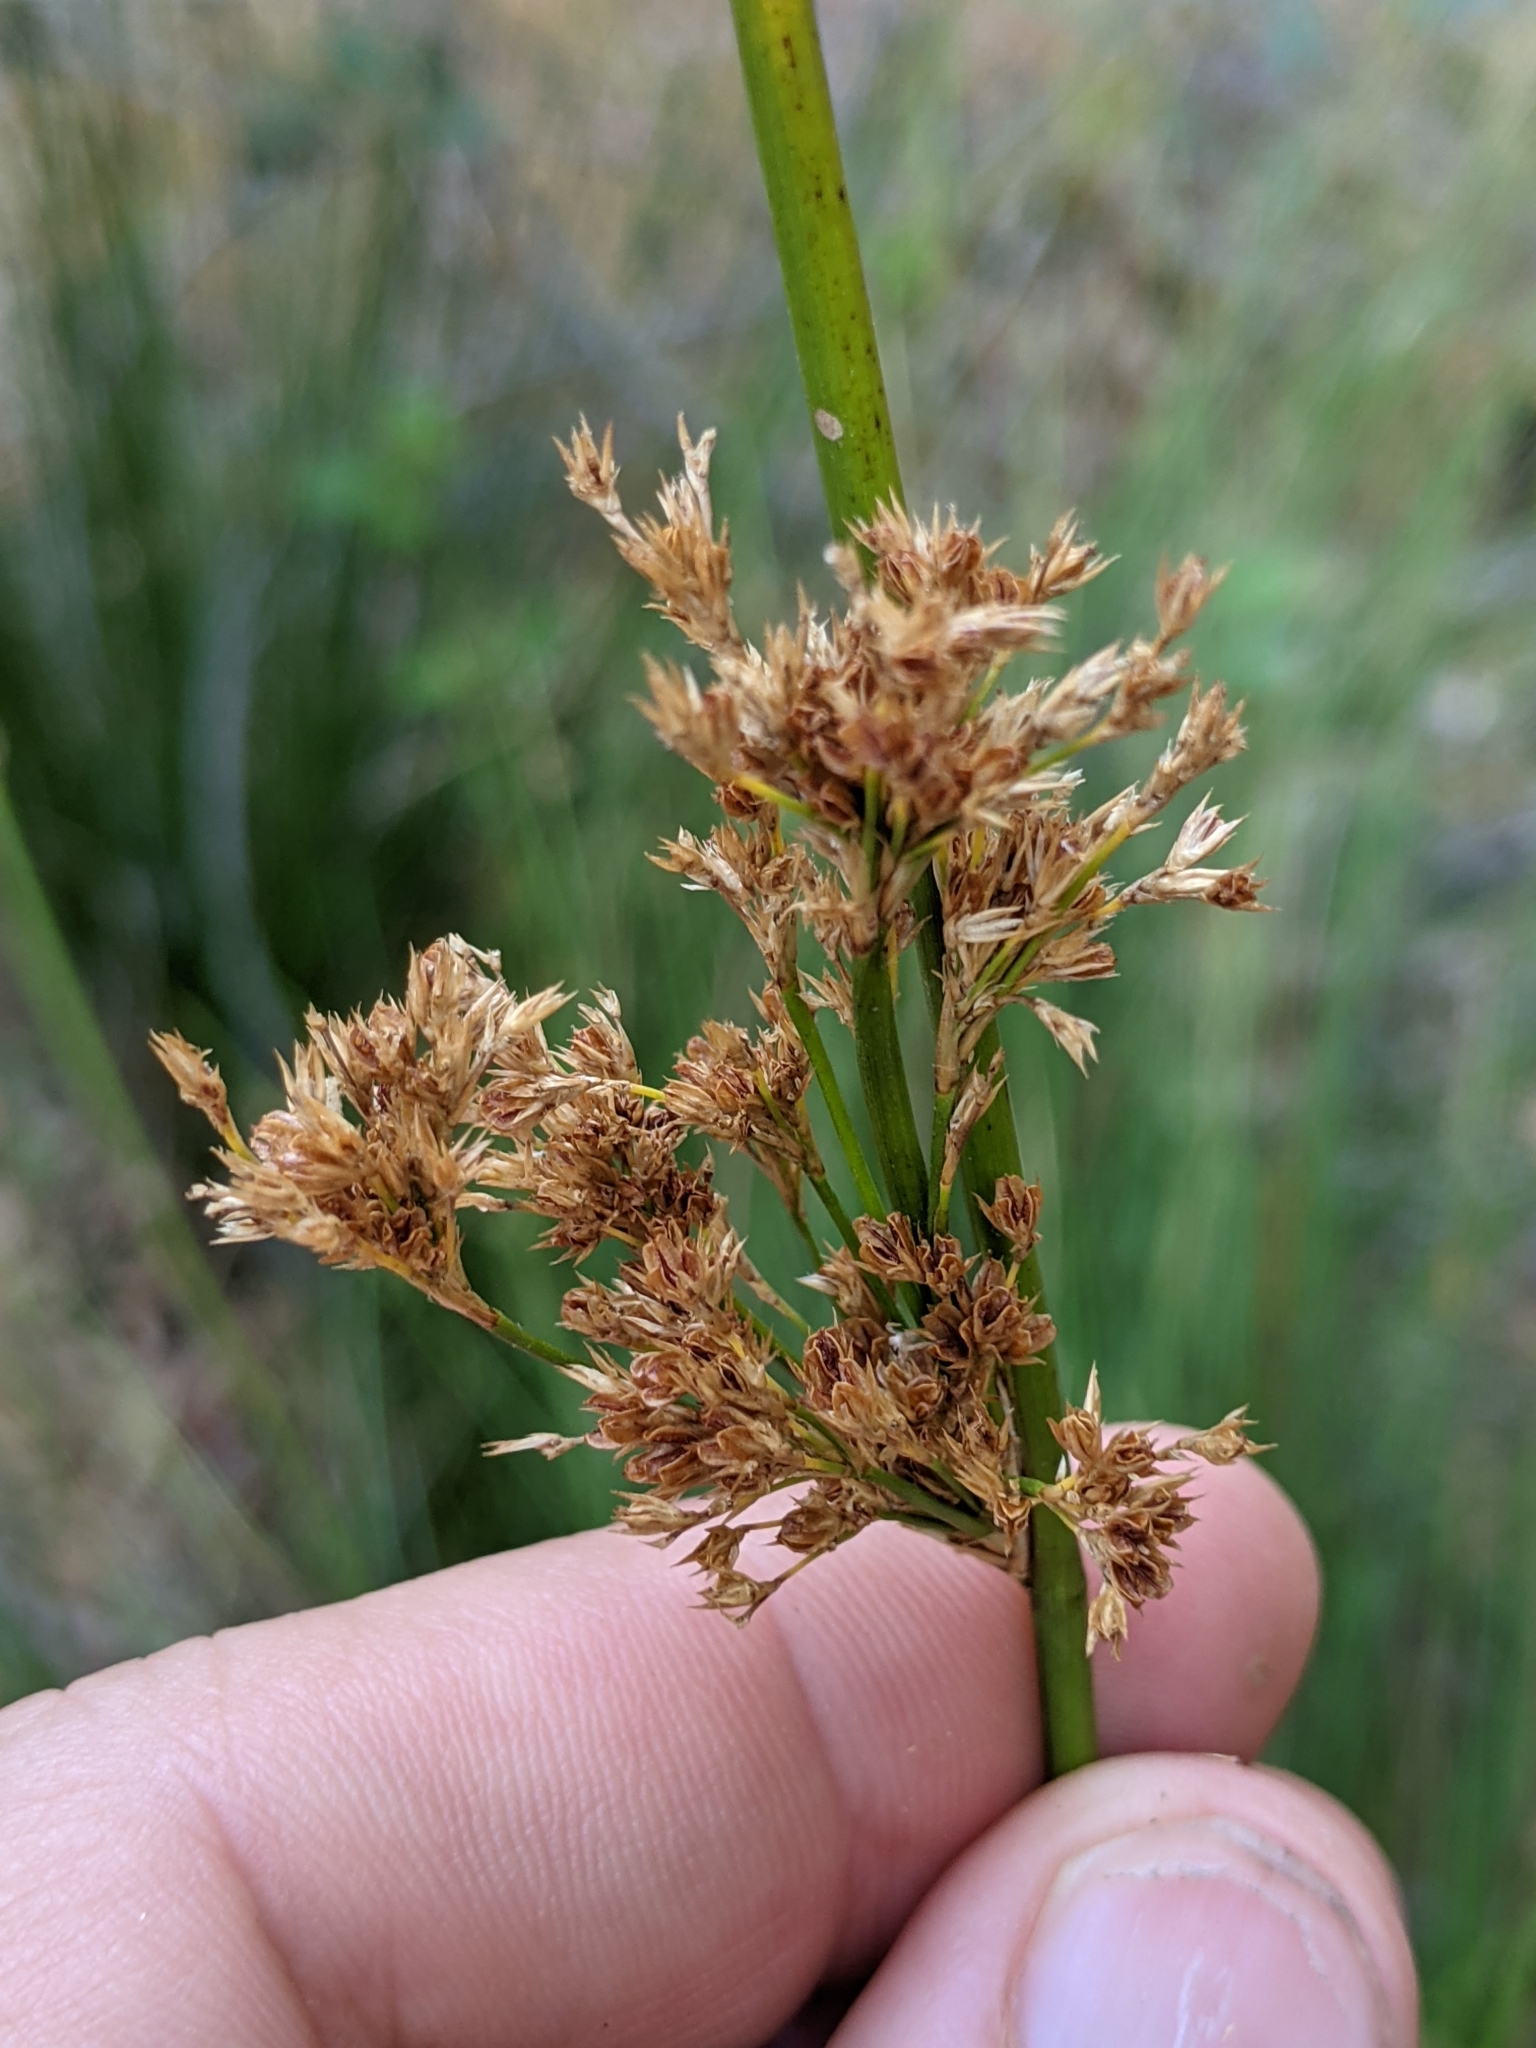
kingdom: Plantae
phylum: Tracheophyta
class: Liliopsida
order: Poales
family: Juncaceae
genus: Juncus
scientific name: Juncus effusus
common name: Soft rush
